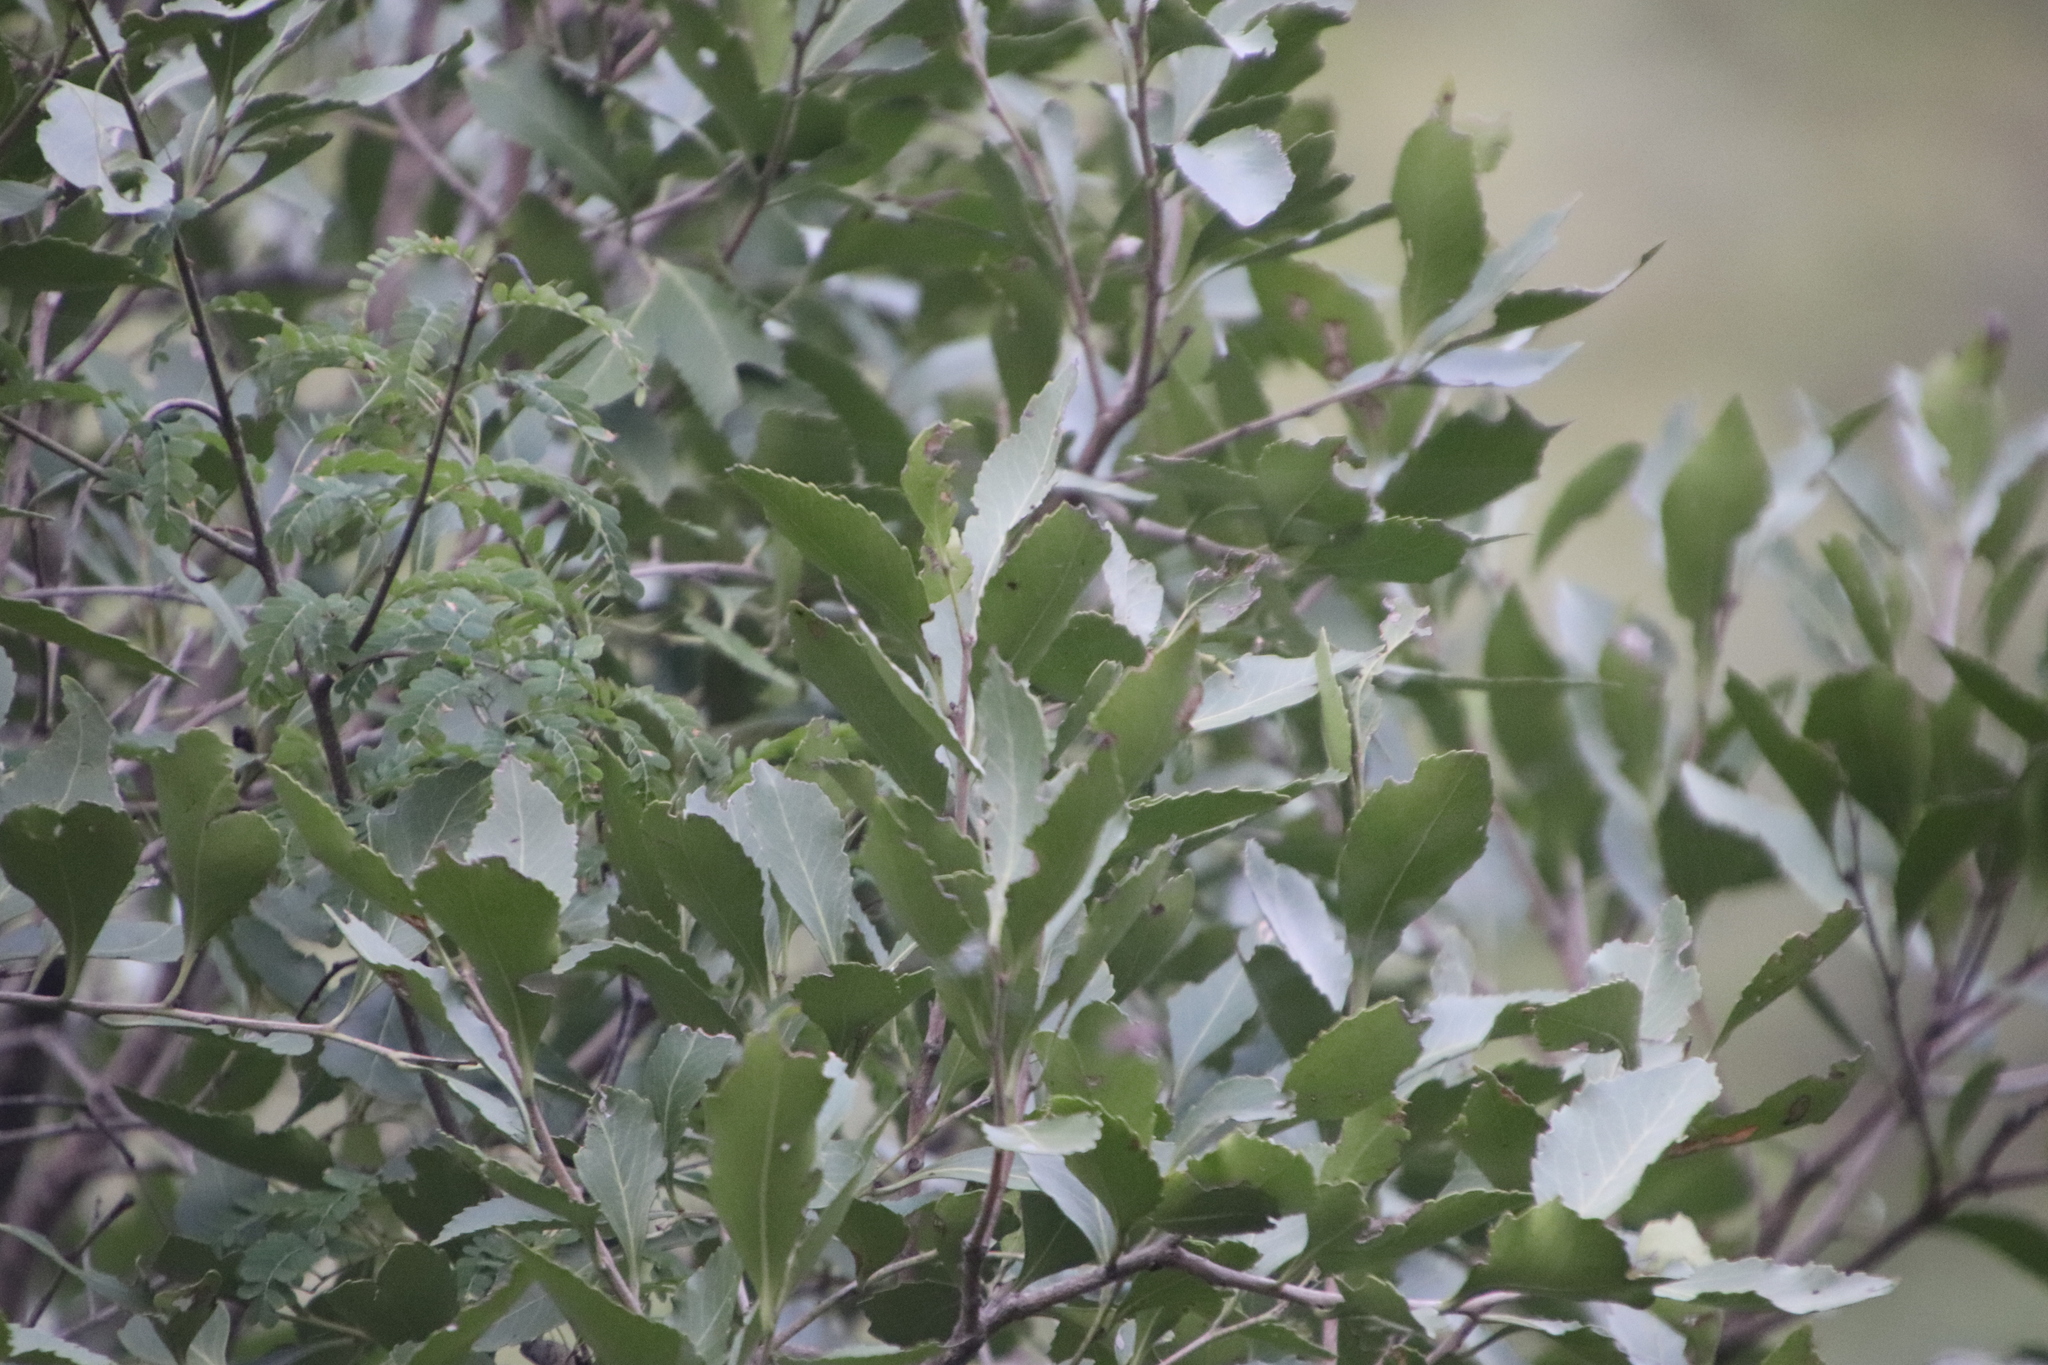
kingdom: Plantae
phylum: Tracheophyta
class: Magnoliopsida
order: Celastrales
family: Celastraceae
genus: Gymnosporia
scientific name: Gymnosporia undata
